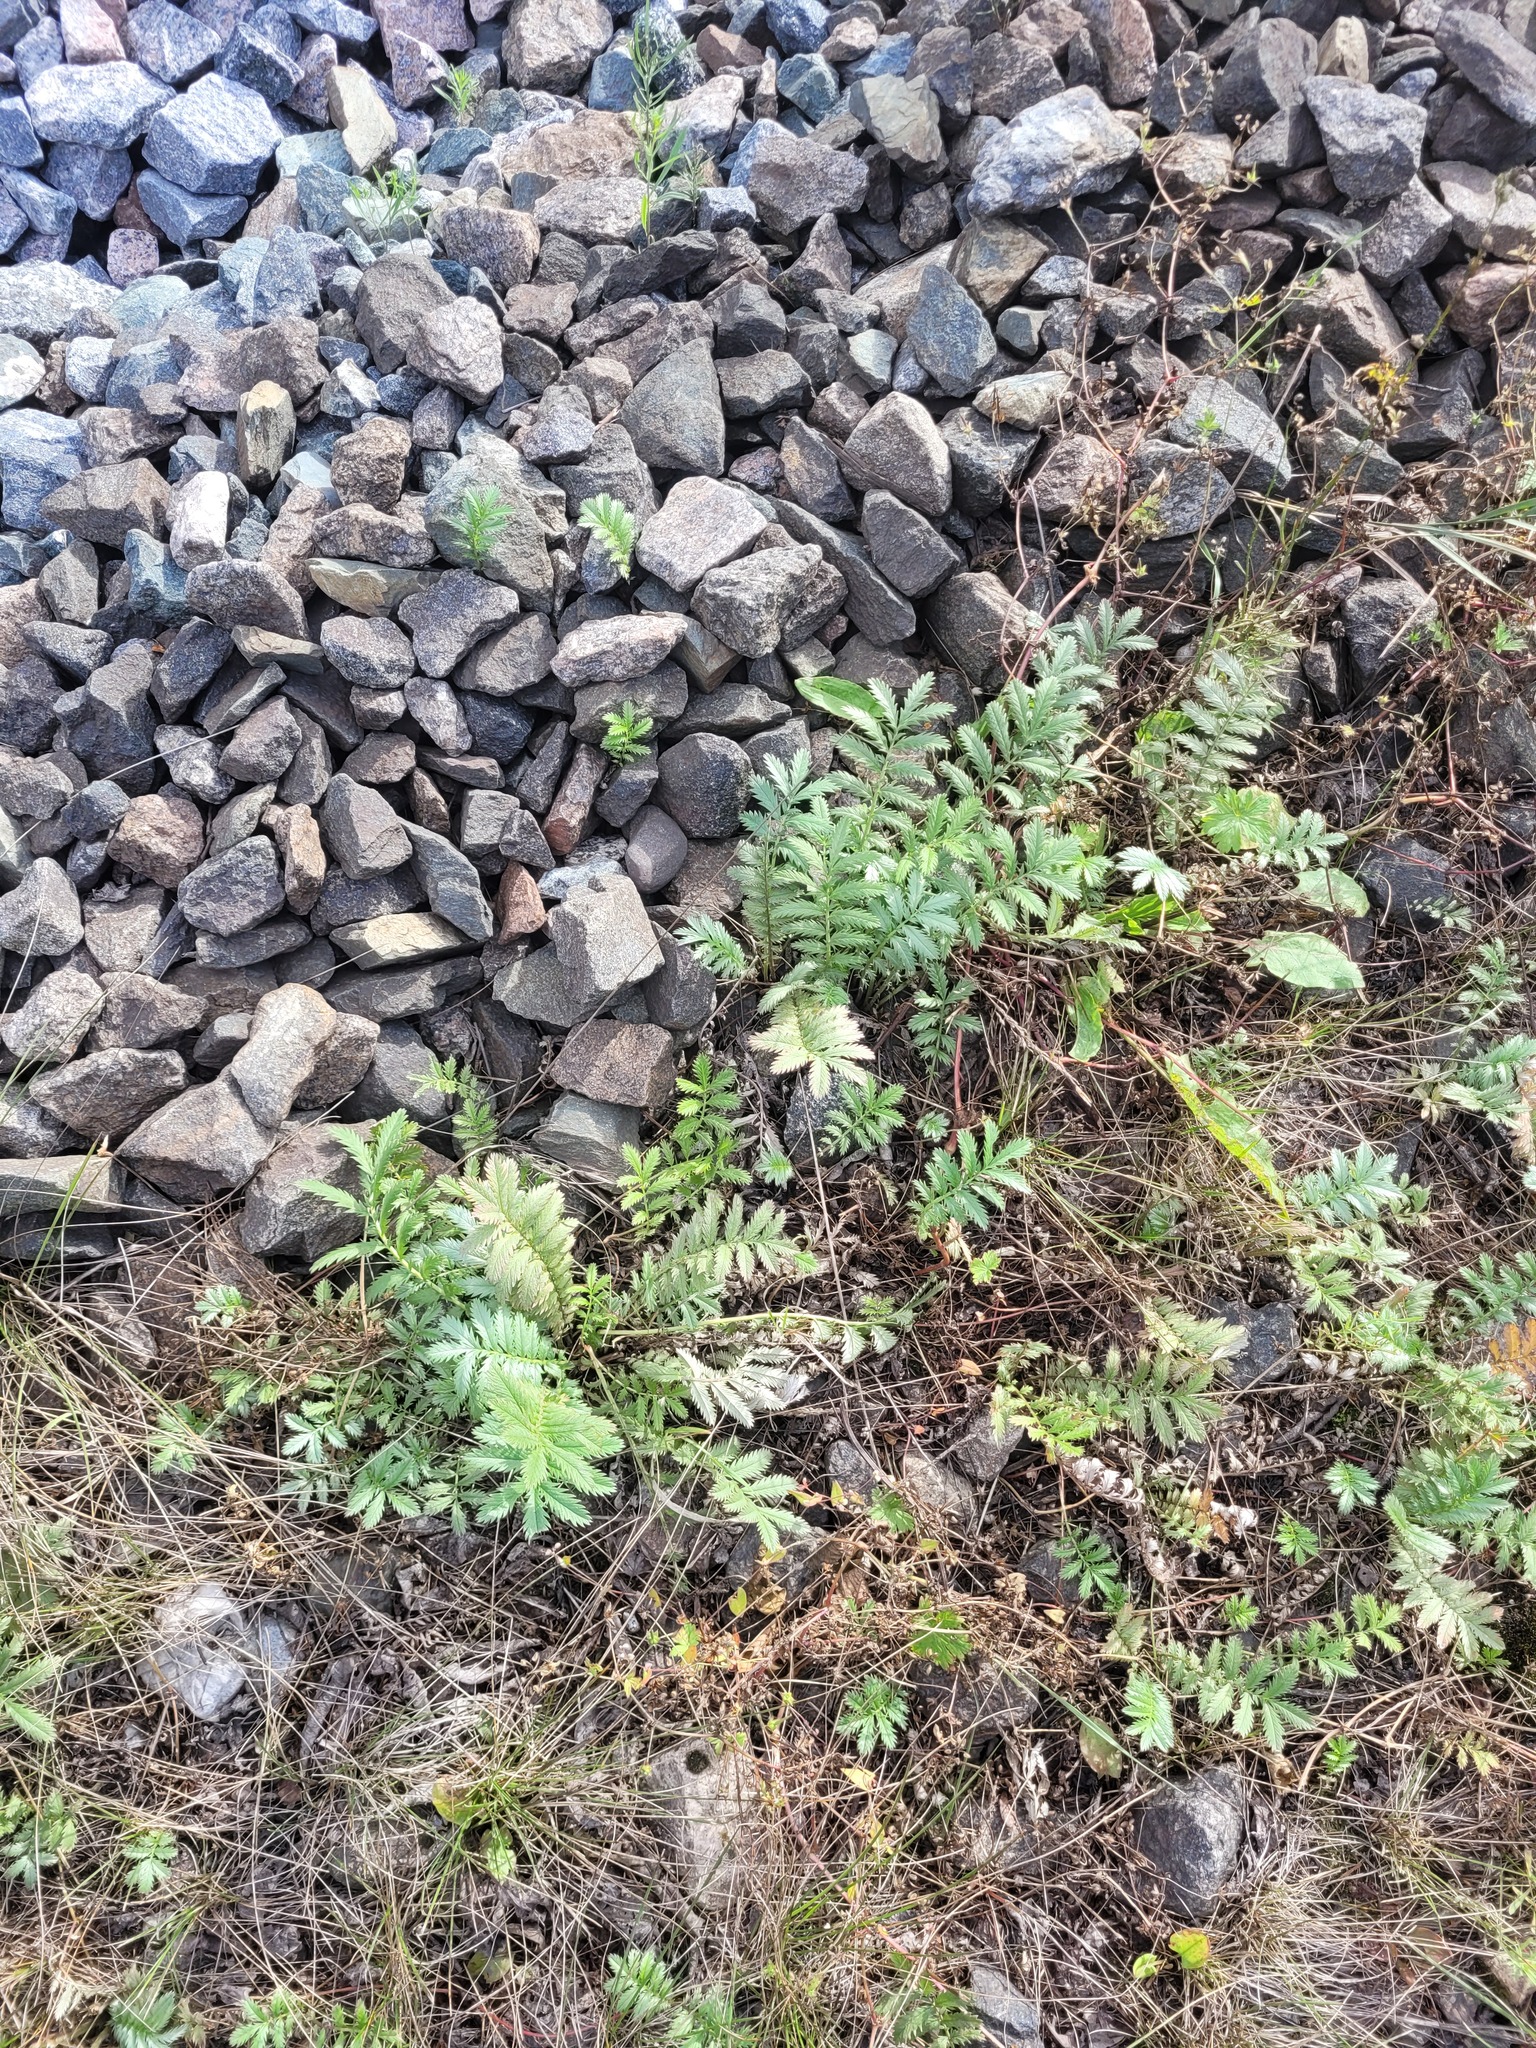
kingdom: Plantae
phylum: Tracheophyta
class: Magnoliopsida
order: Rosales
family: Rosaceae
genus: Argentina
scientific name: Argentina anserina
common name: Common silverweed
